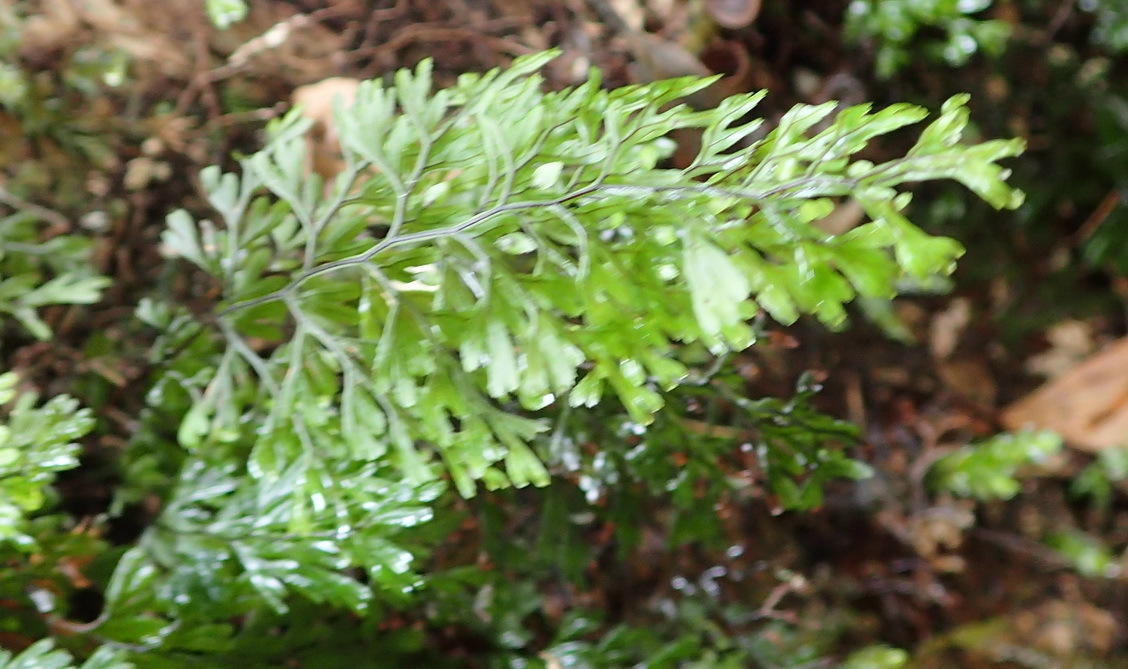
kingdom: Plantae
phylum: Tracheophyta
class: Polypodiopsida
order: Hymenophyllales
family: Hymenophyllaceae
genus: Hymenophyllum
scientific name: Hymenophyllum tunbrigense
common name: Tunbridge filmy fern
